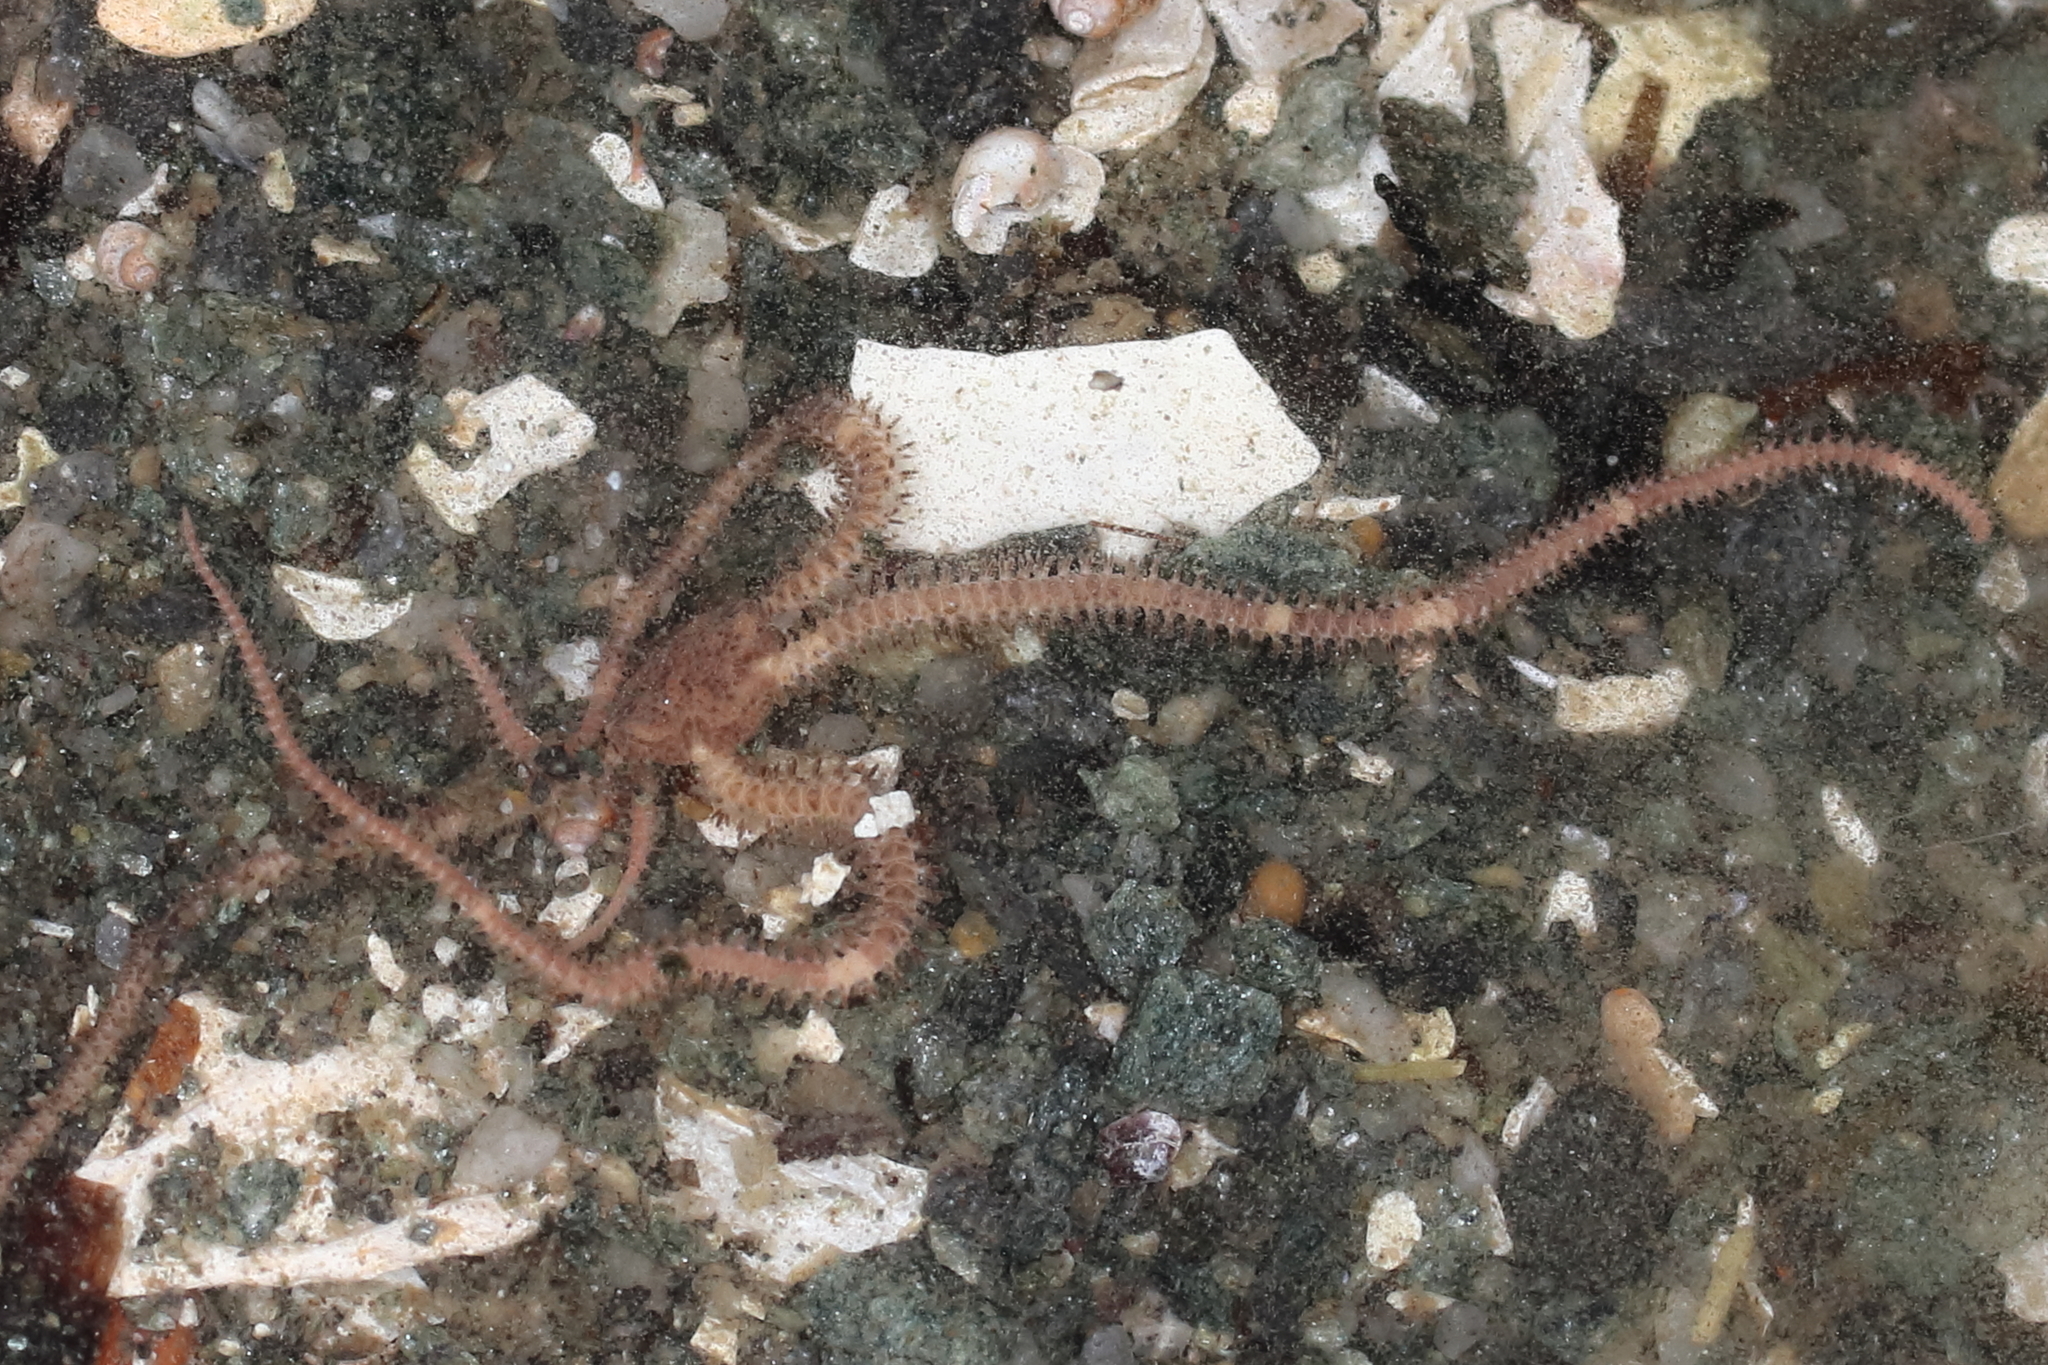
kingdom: Animalia
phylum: Echinodermata
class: Ophiuroidea
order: Amphilepidida
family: Amphiuridae
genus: Amphiodia
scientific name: Amphiodia occidentalis
